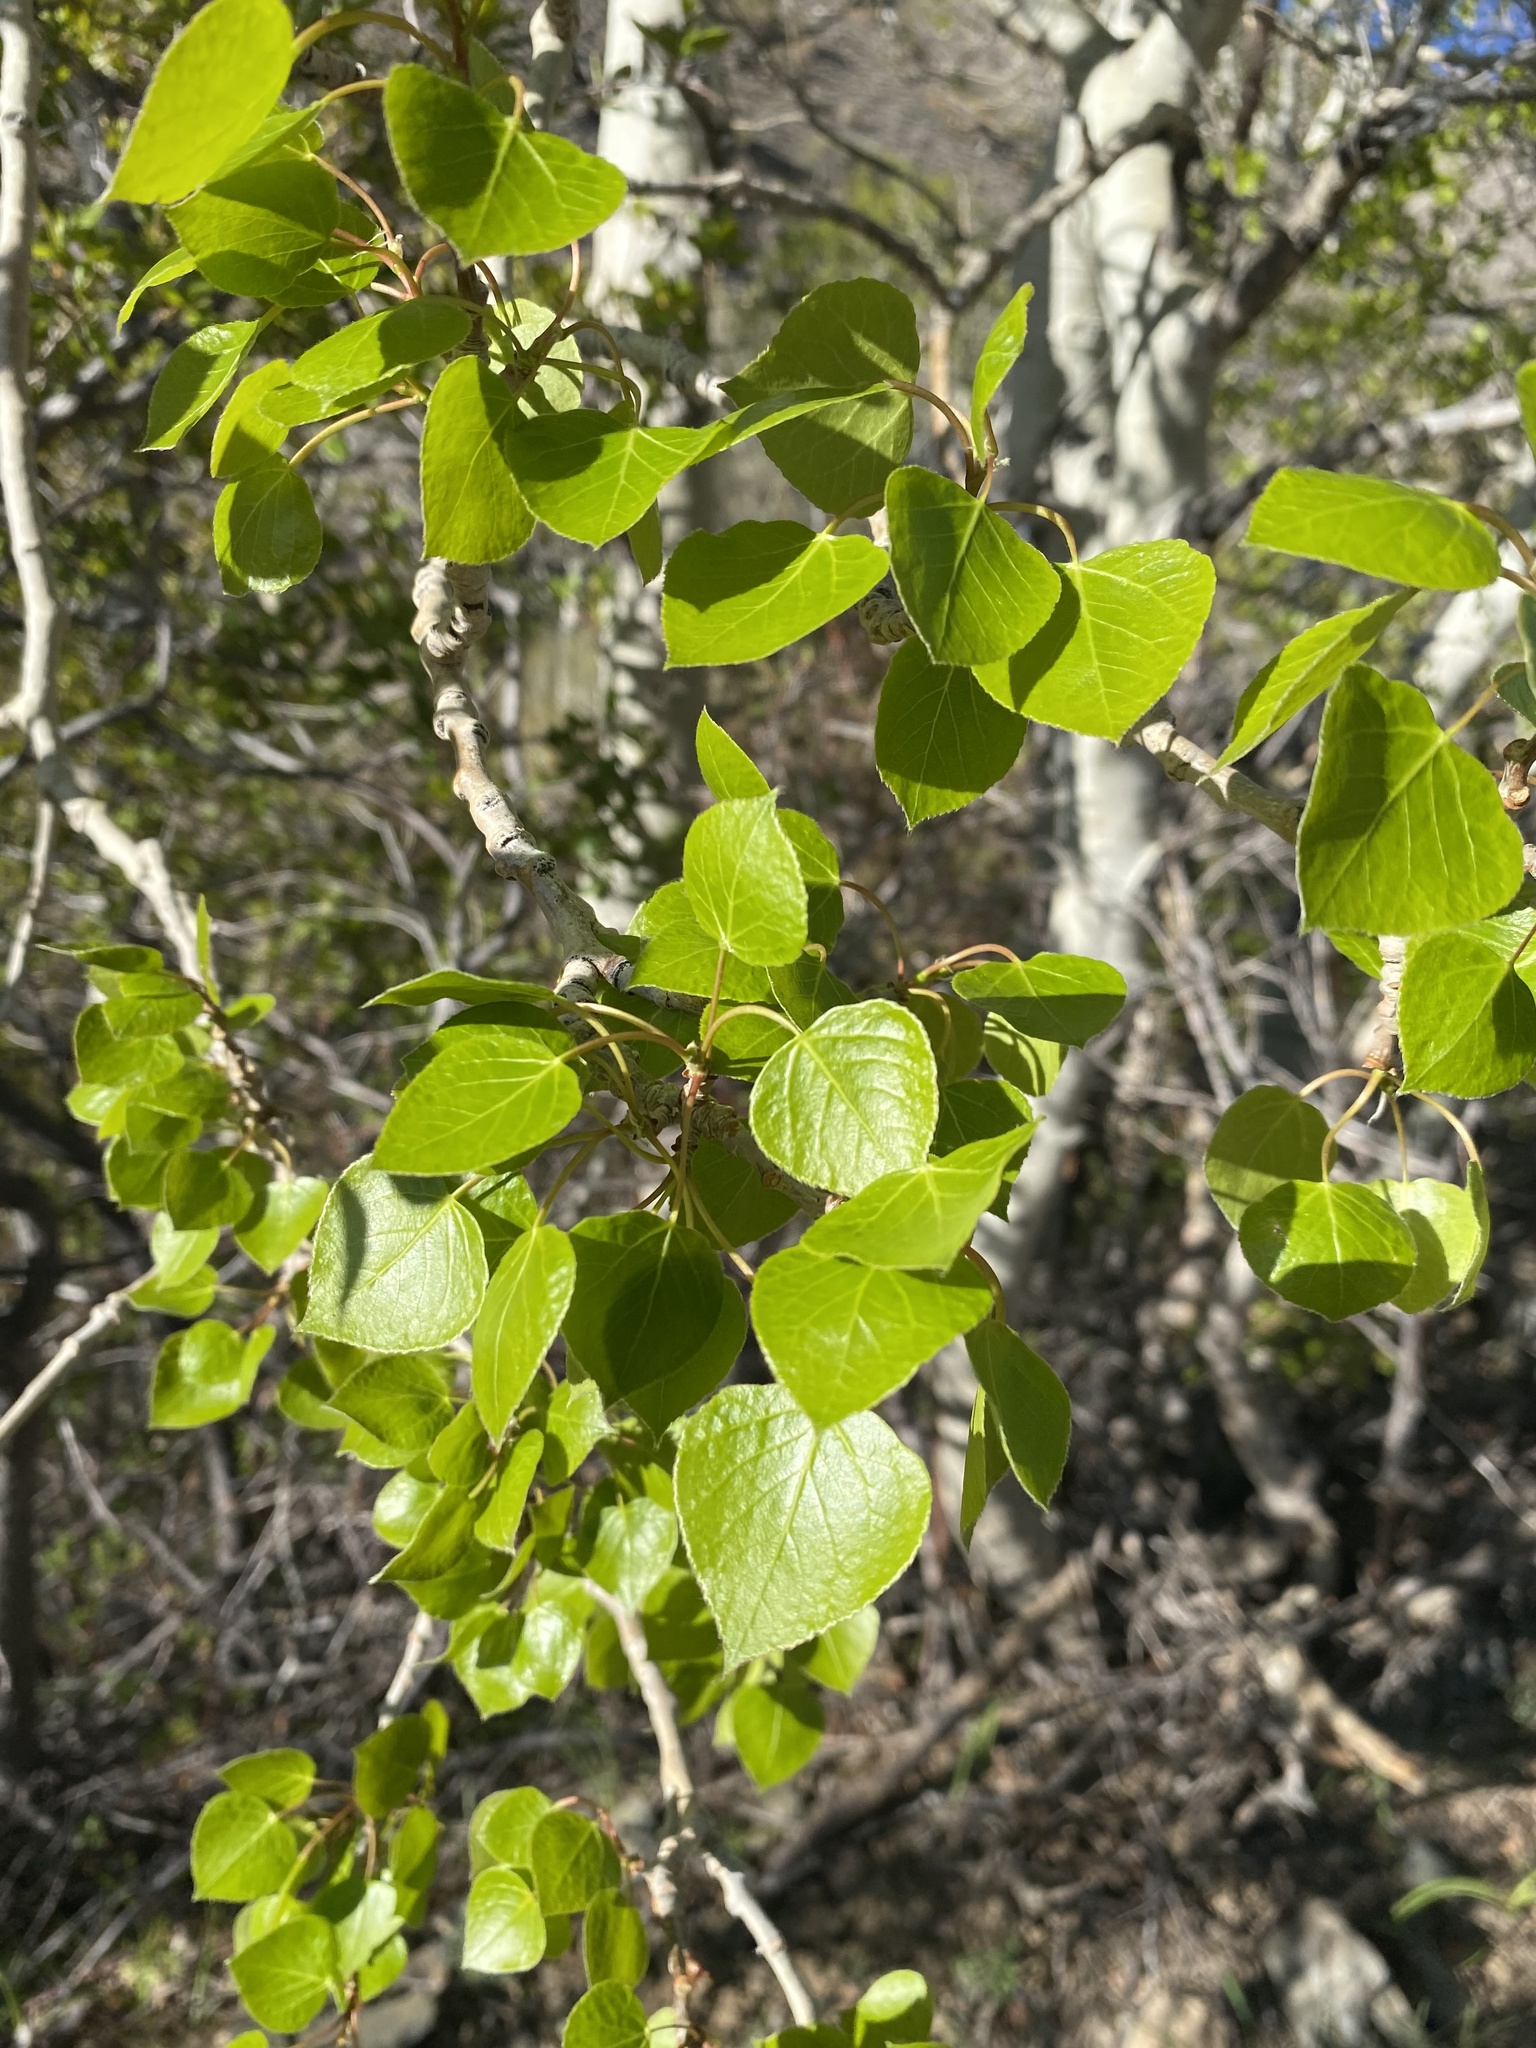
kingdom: Plantae
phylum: Tracheophyta
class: Magnoliopsida
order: Malpighiales
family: Salicaceae
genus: Populus
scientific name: Populus tremuloides
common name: Quaking aspen
